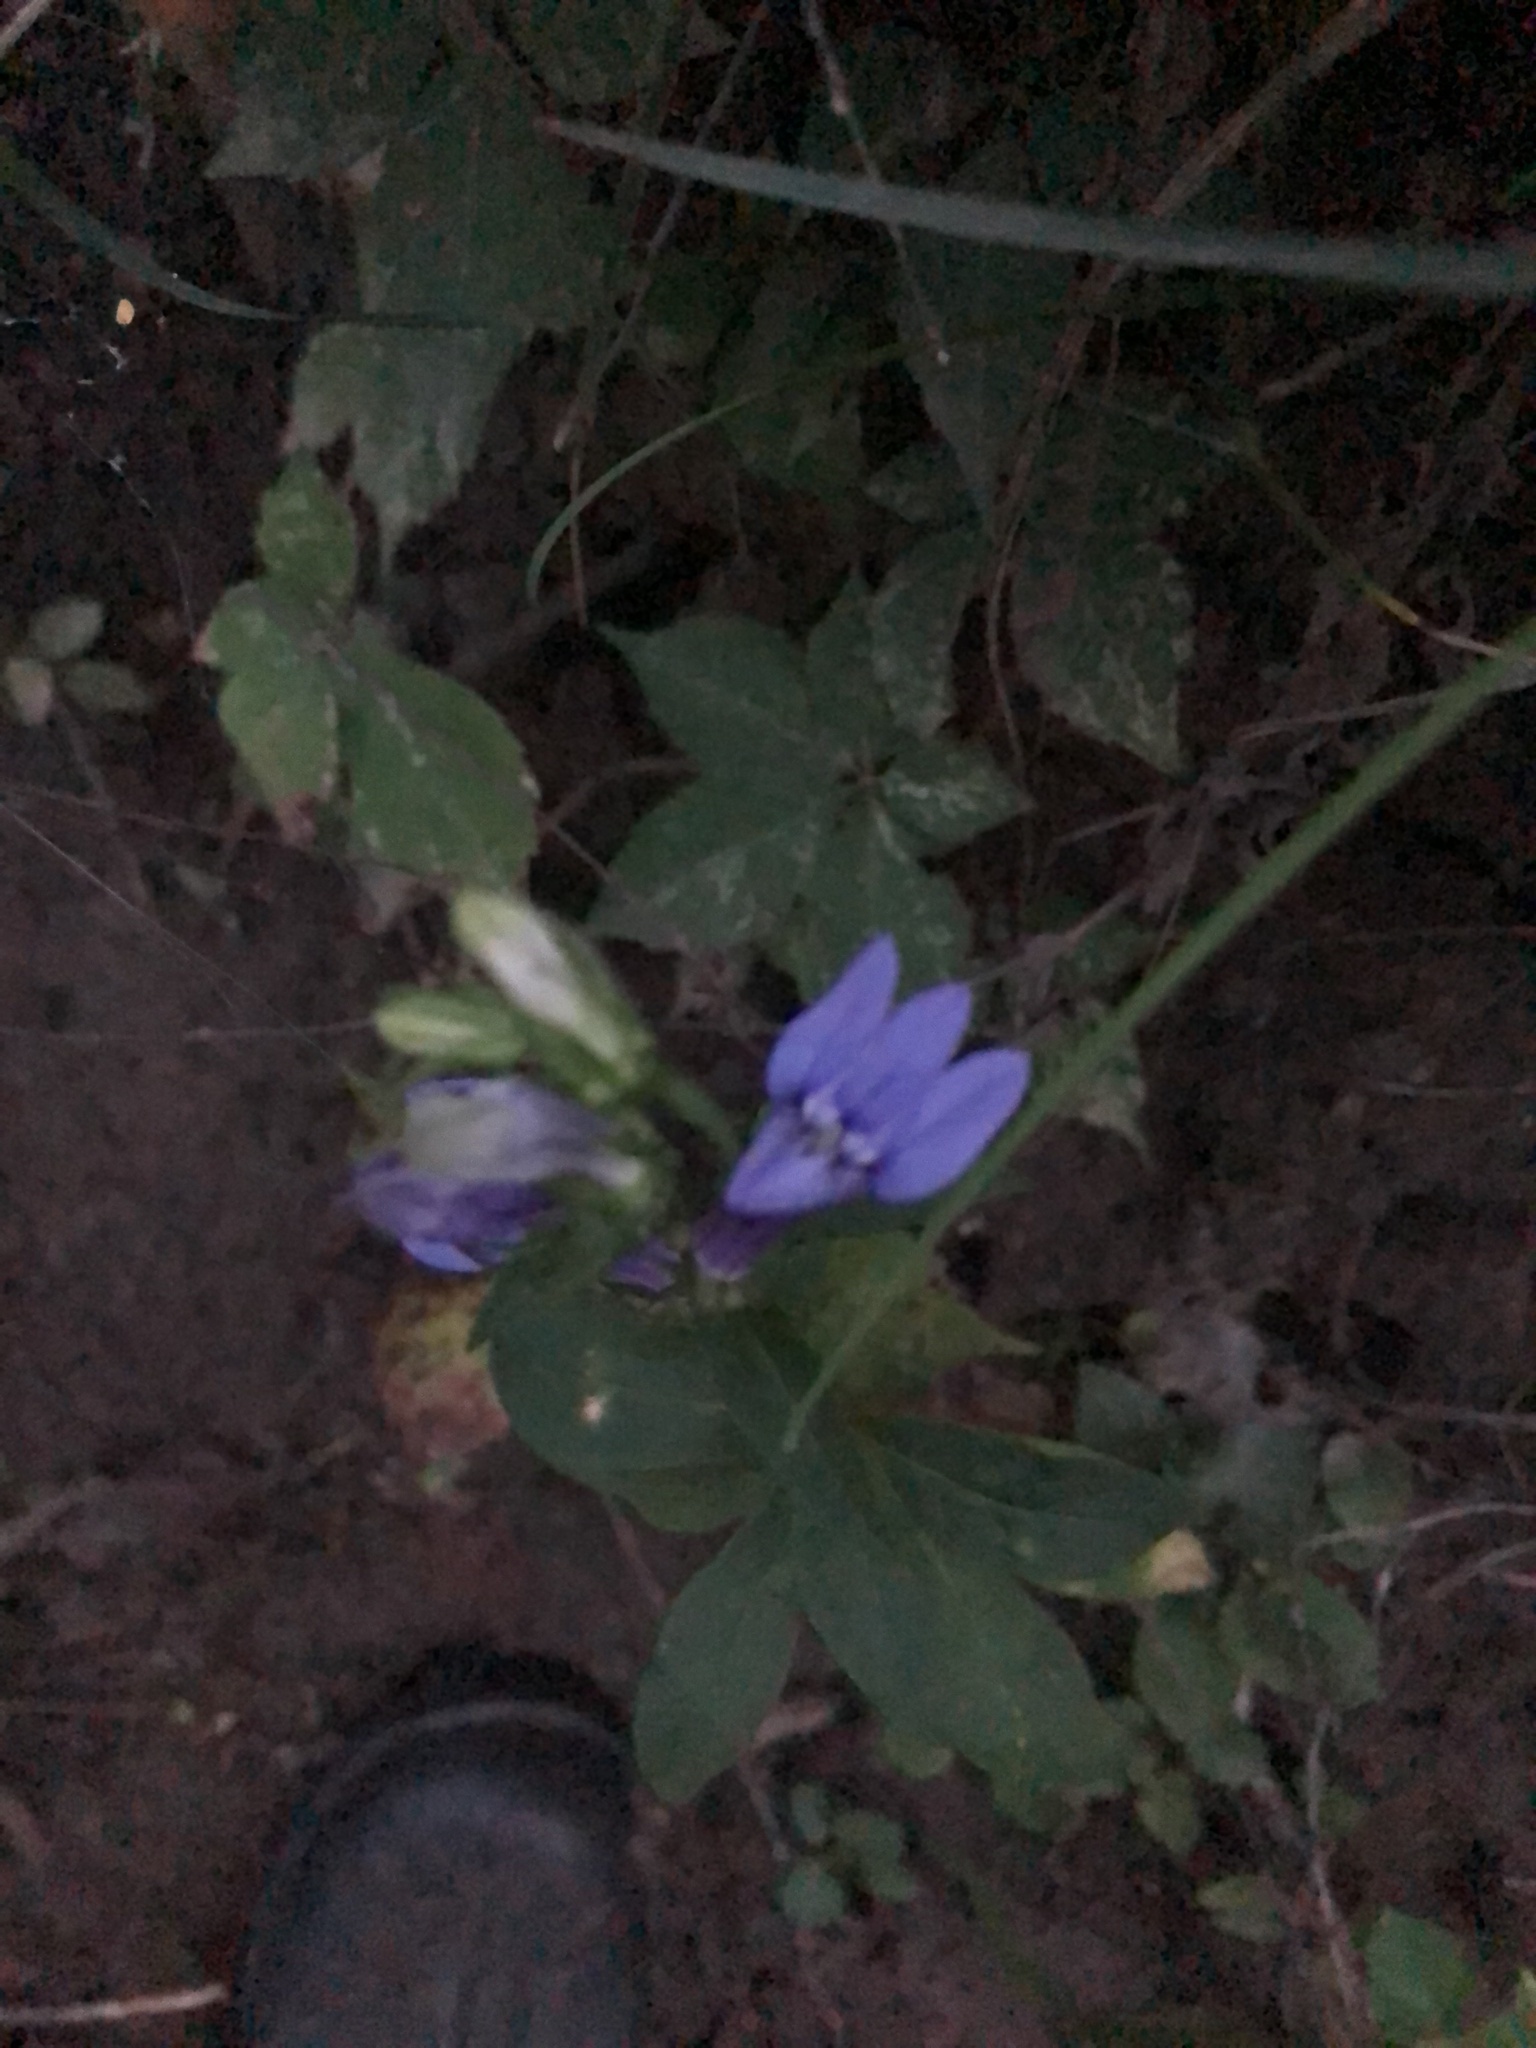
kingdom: Plantae
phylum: Tracheophyta
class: Magnoliopsida
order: Asterales
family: Campanulaceae
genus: Lobelia
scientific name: Lobelia siphilitica
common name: Great lobelia
